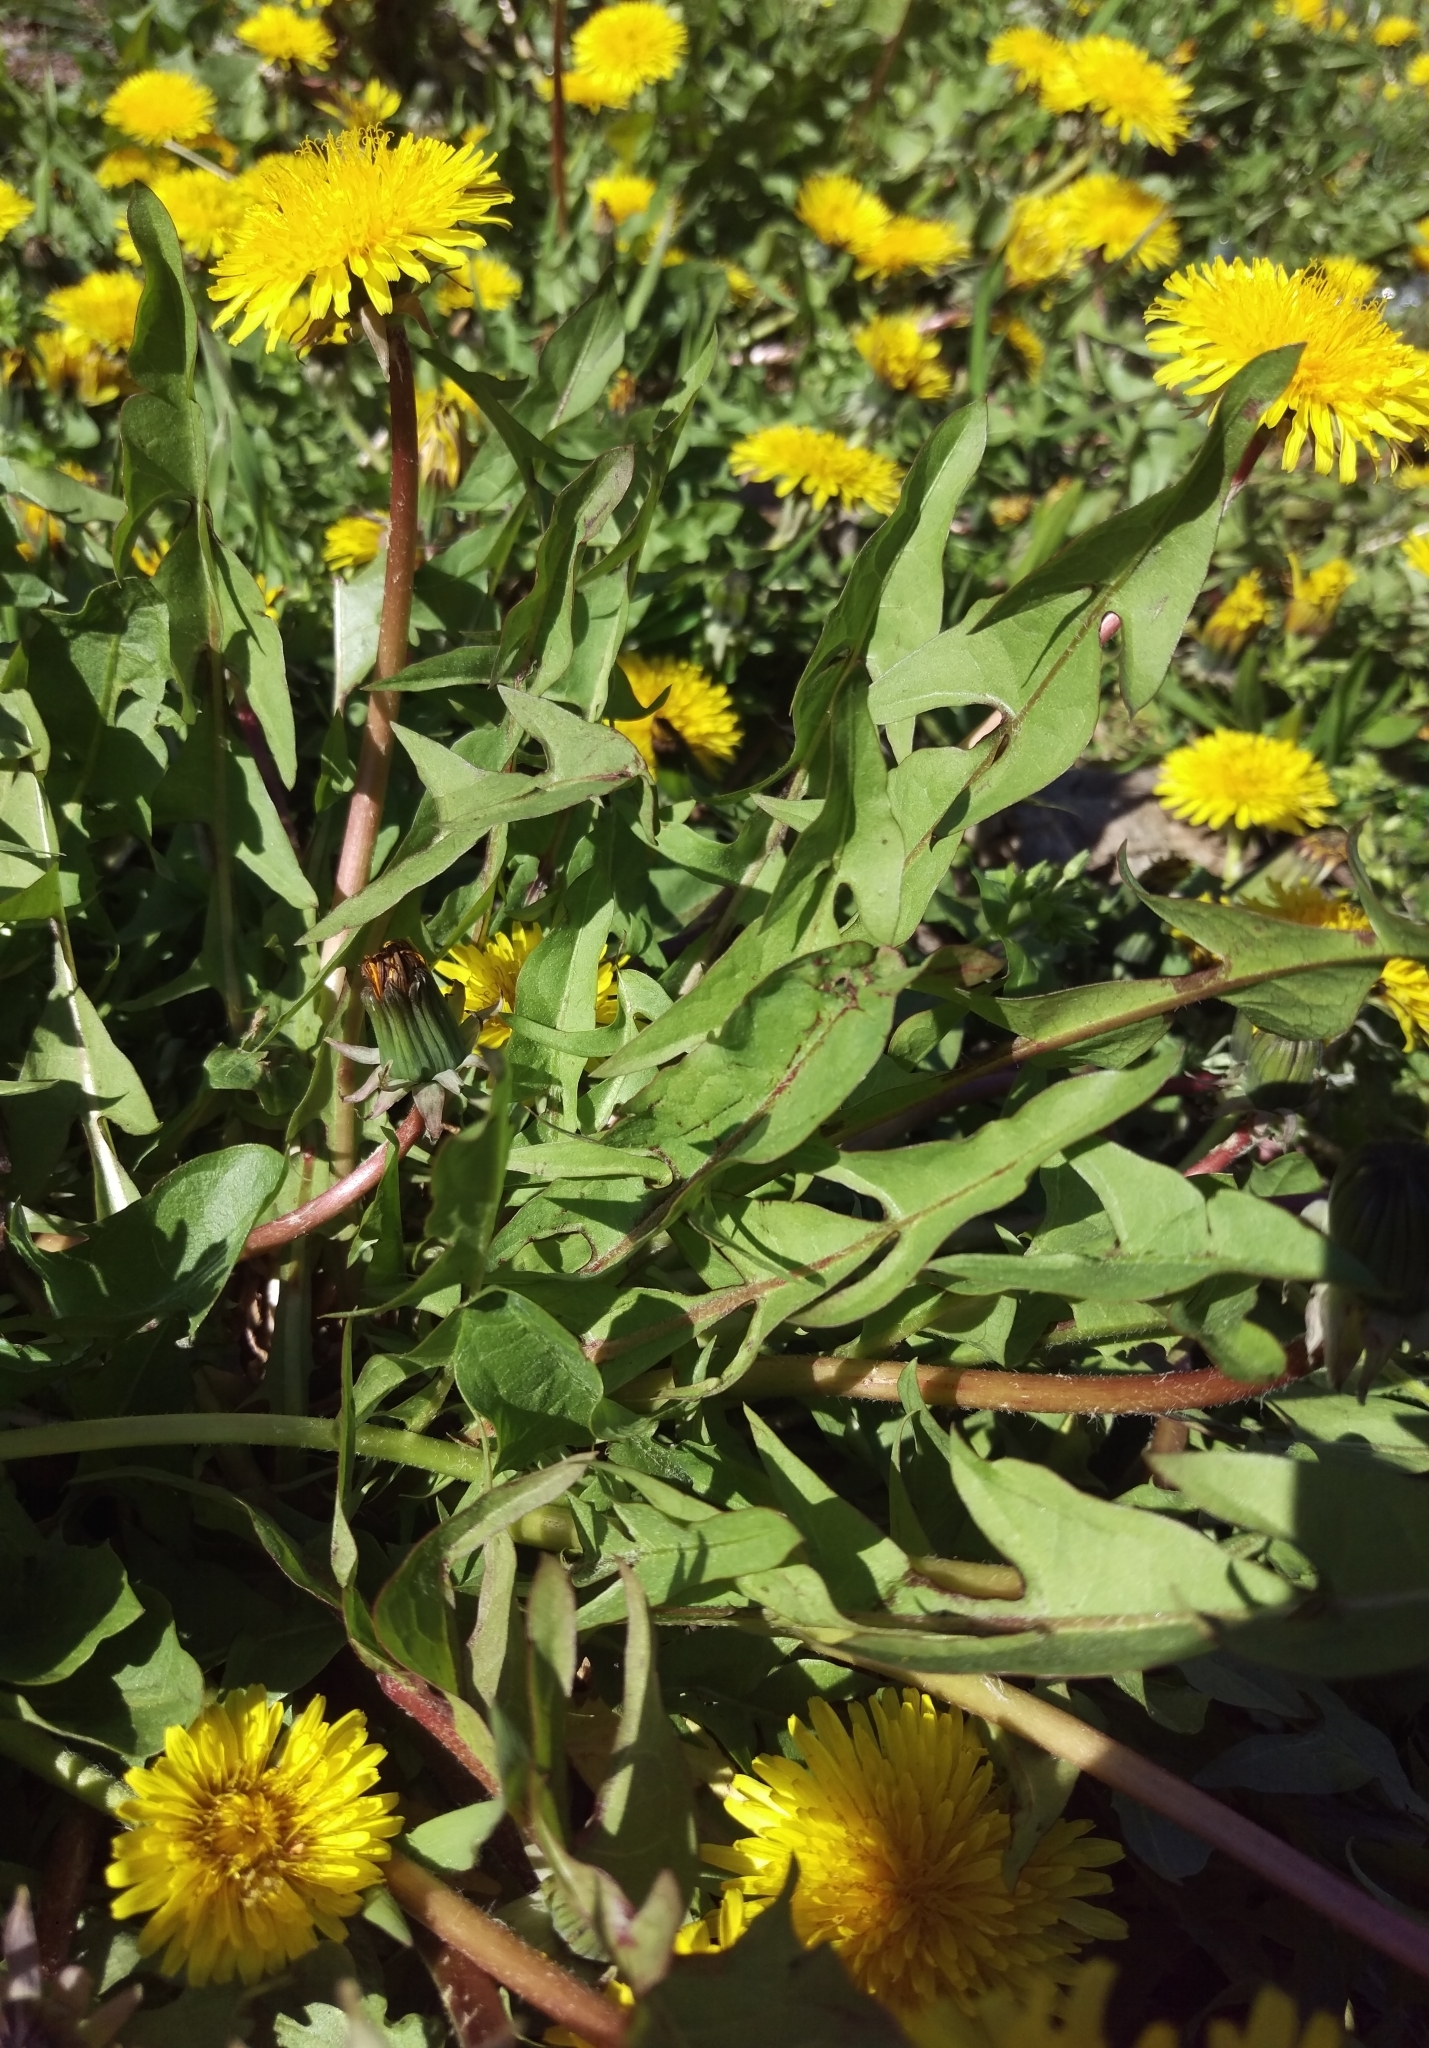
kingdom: Plantae
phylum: Tracheophyta
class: Magnoliopsida
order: Asterales
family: Asteraceae
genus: Taraxacum
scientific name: Taraxacum
